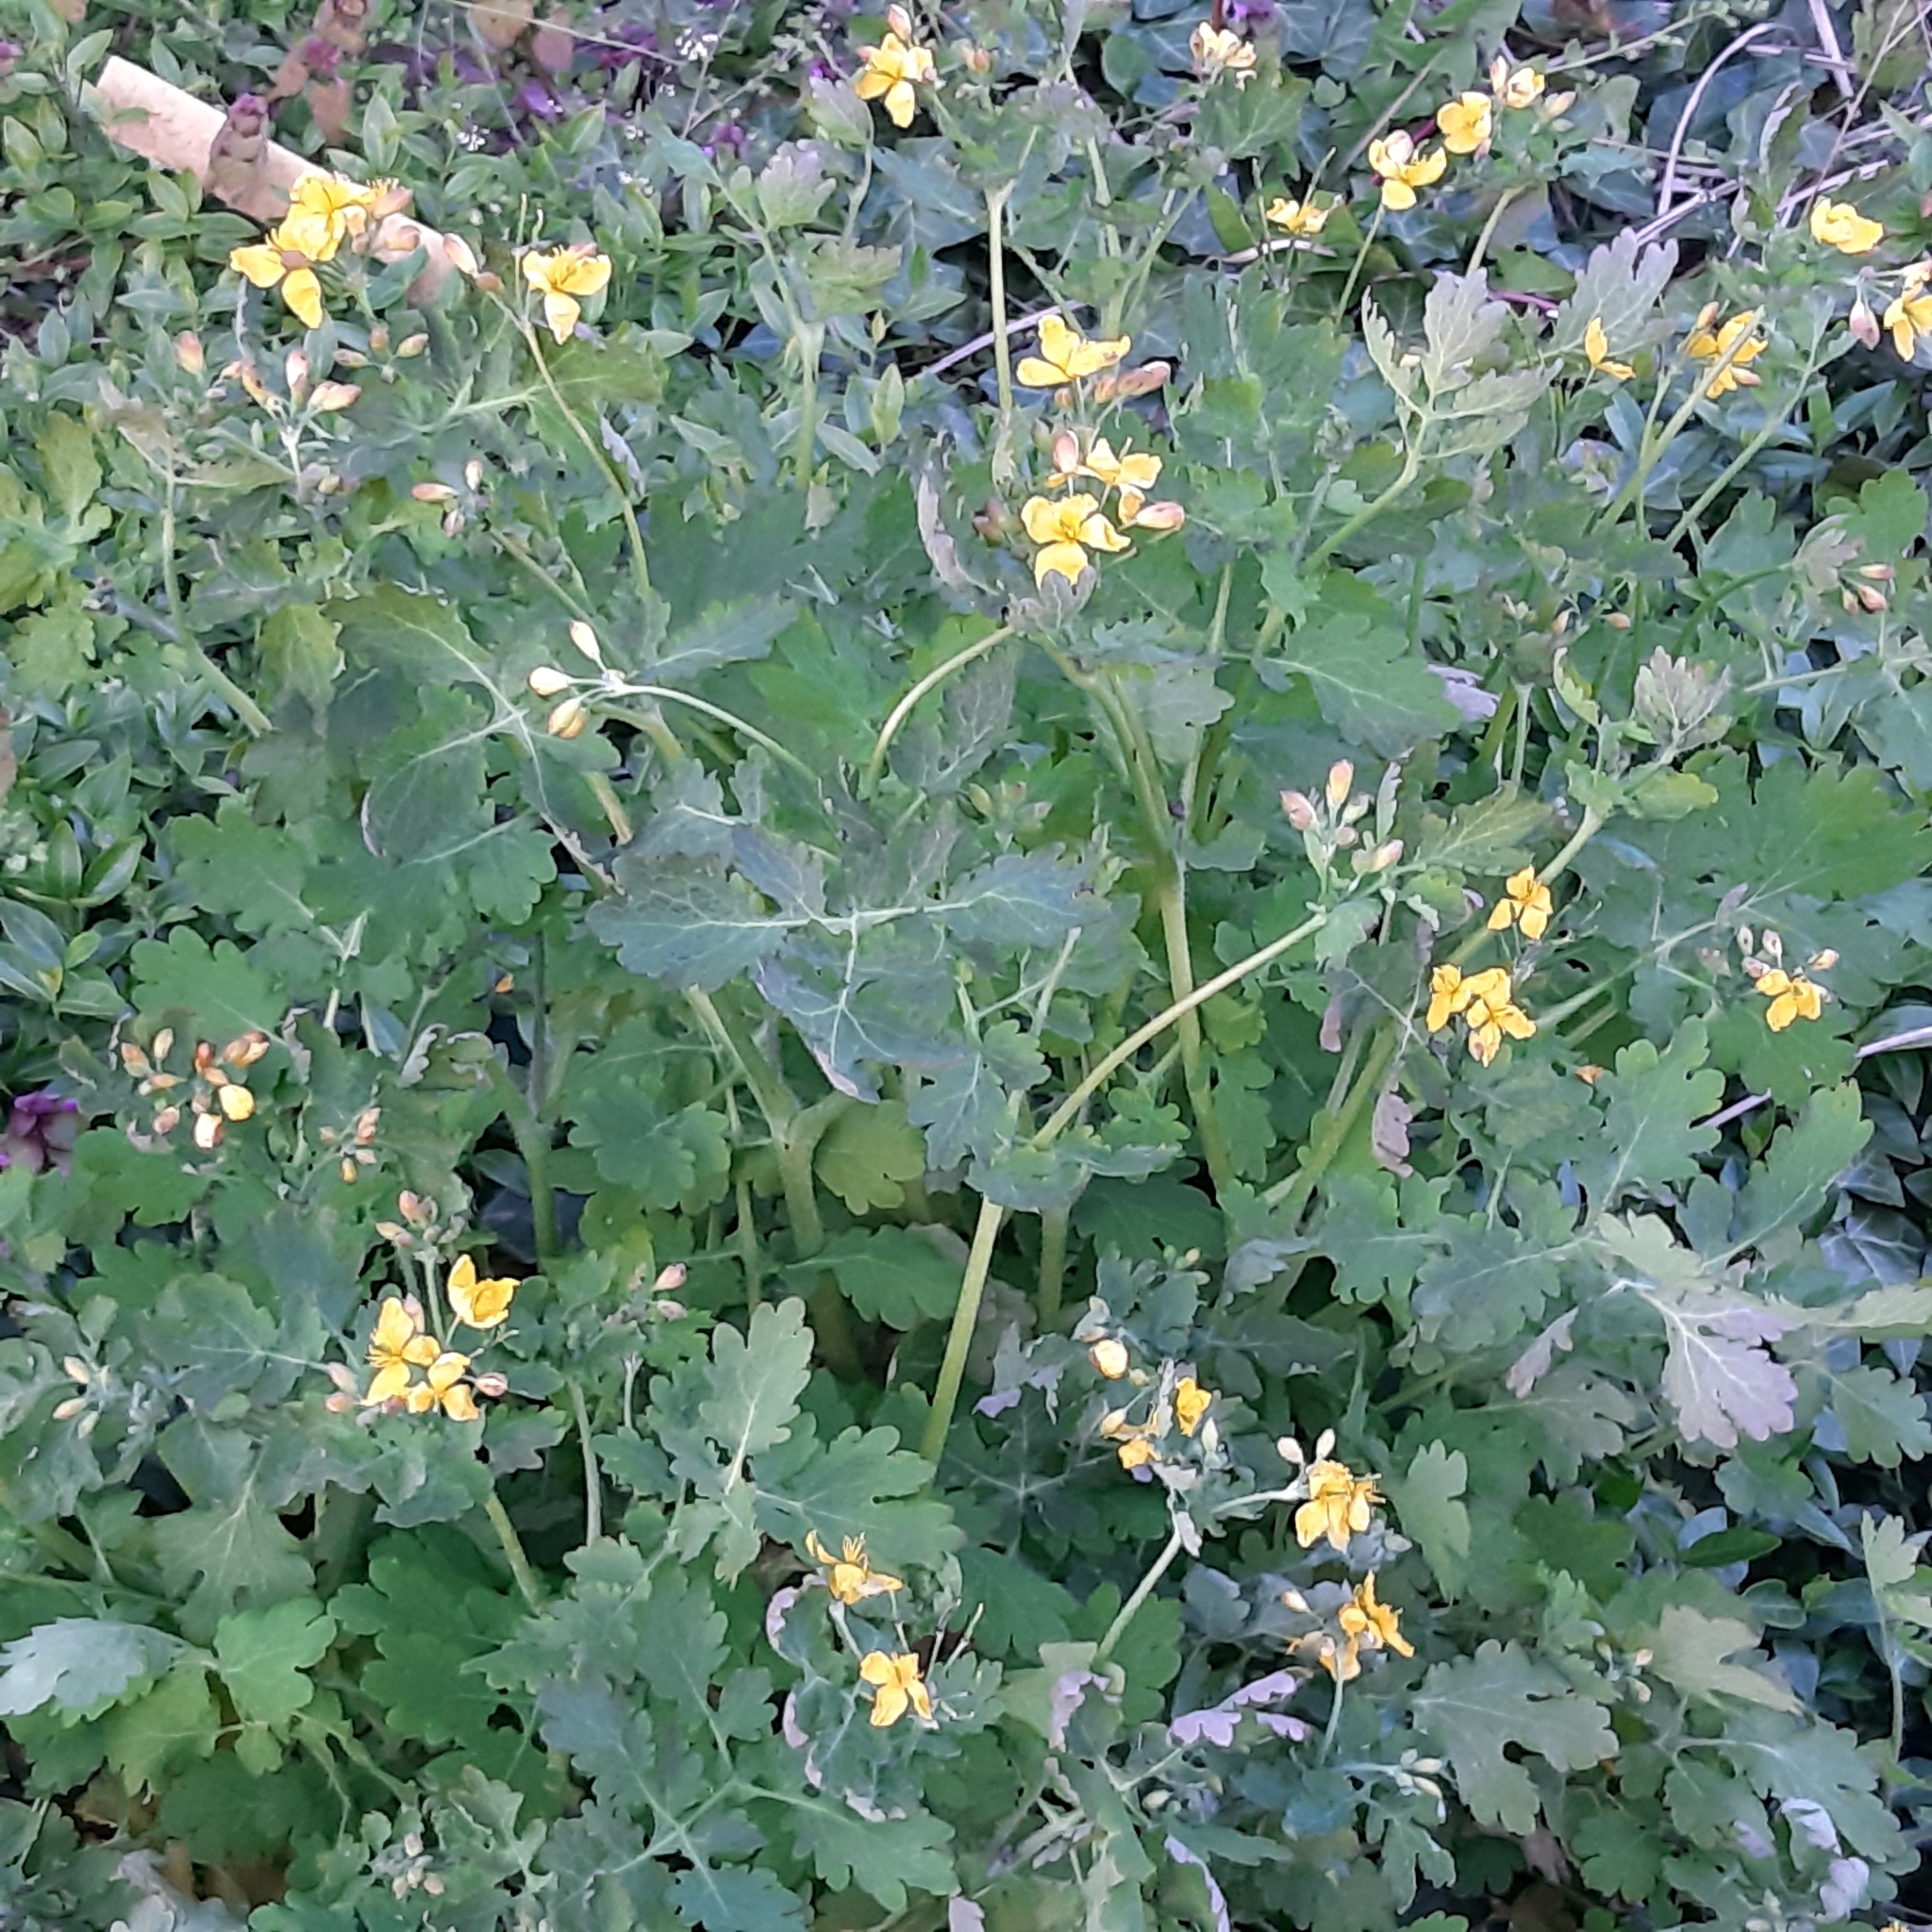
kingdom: Plantae
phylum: Tracheophyta
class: Magnoliopsida
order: Ranunculales
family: Papaveraceae
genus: Chelidonium
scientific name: Chelidonium majus
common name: Greater celandine
